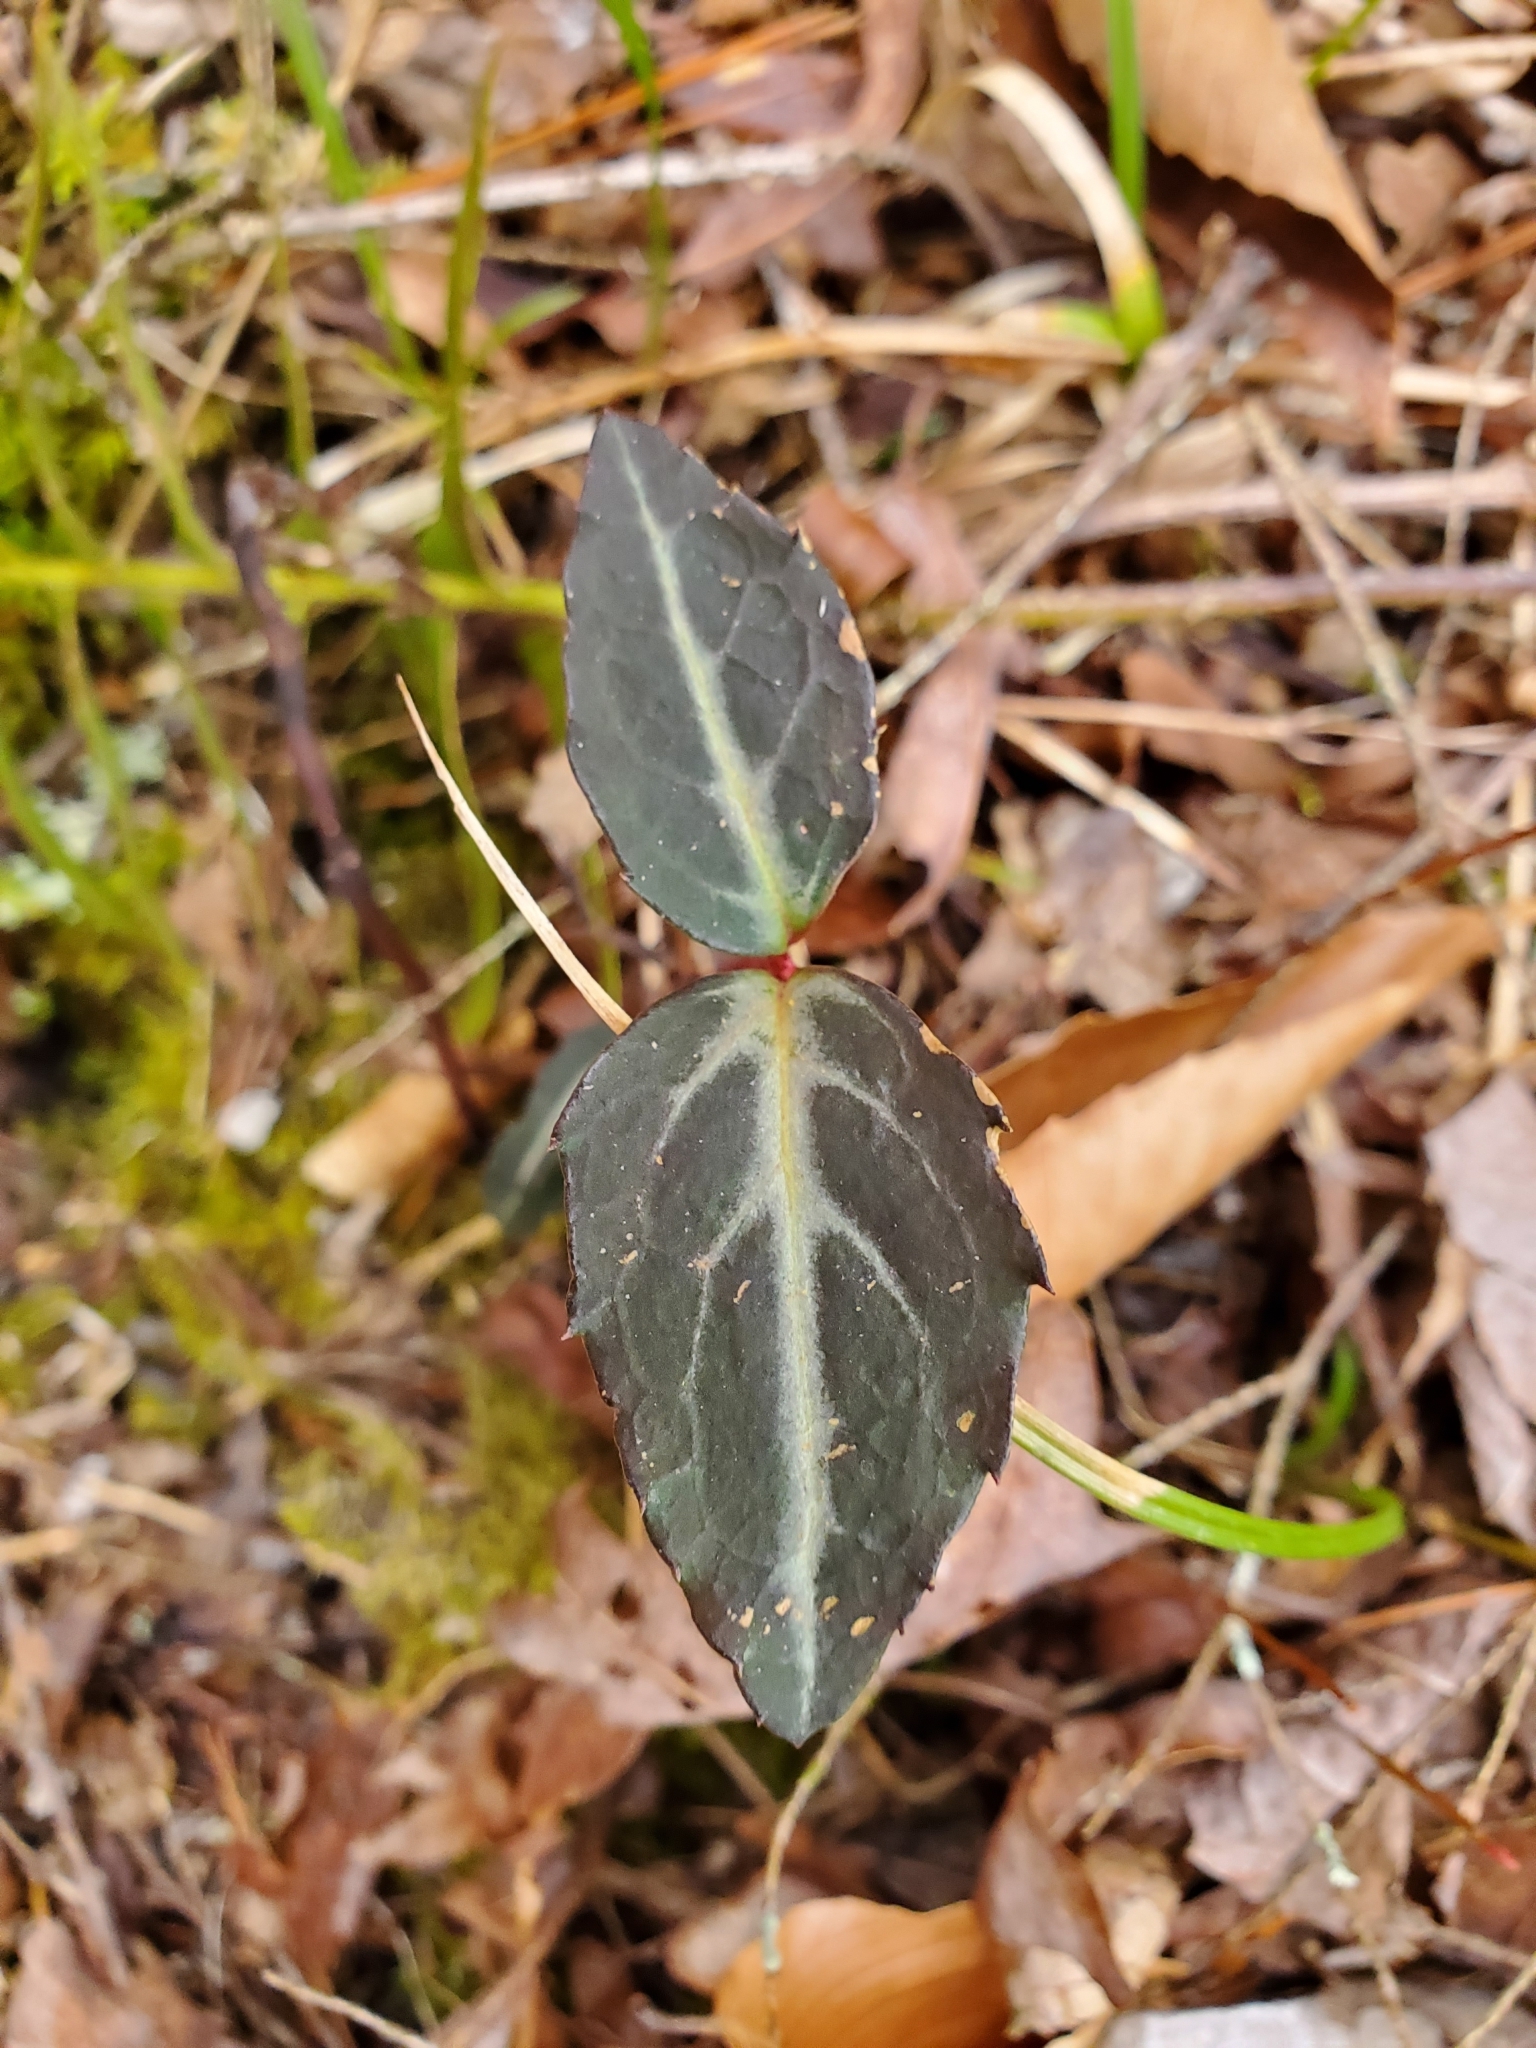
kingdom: Plantae
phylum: Tracheophyta
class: Magnoliopsida
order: Ericales
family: Ericaceae
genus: Chimaphila
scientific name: Chimaphila maculata
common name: Spotted pipsissewa
